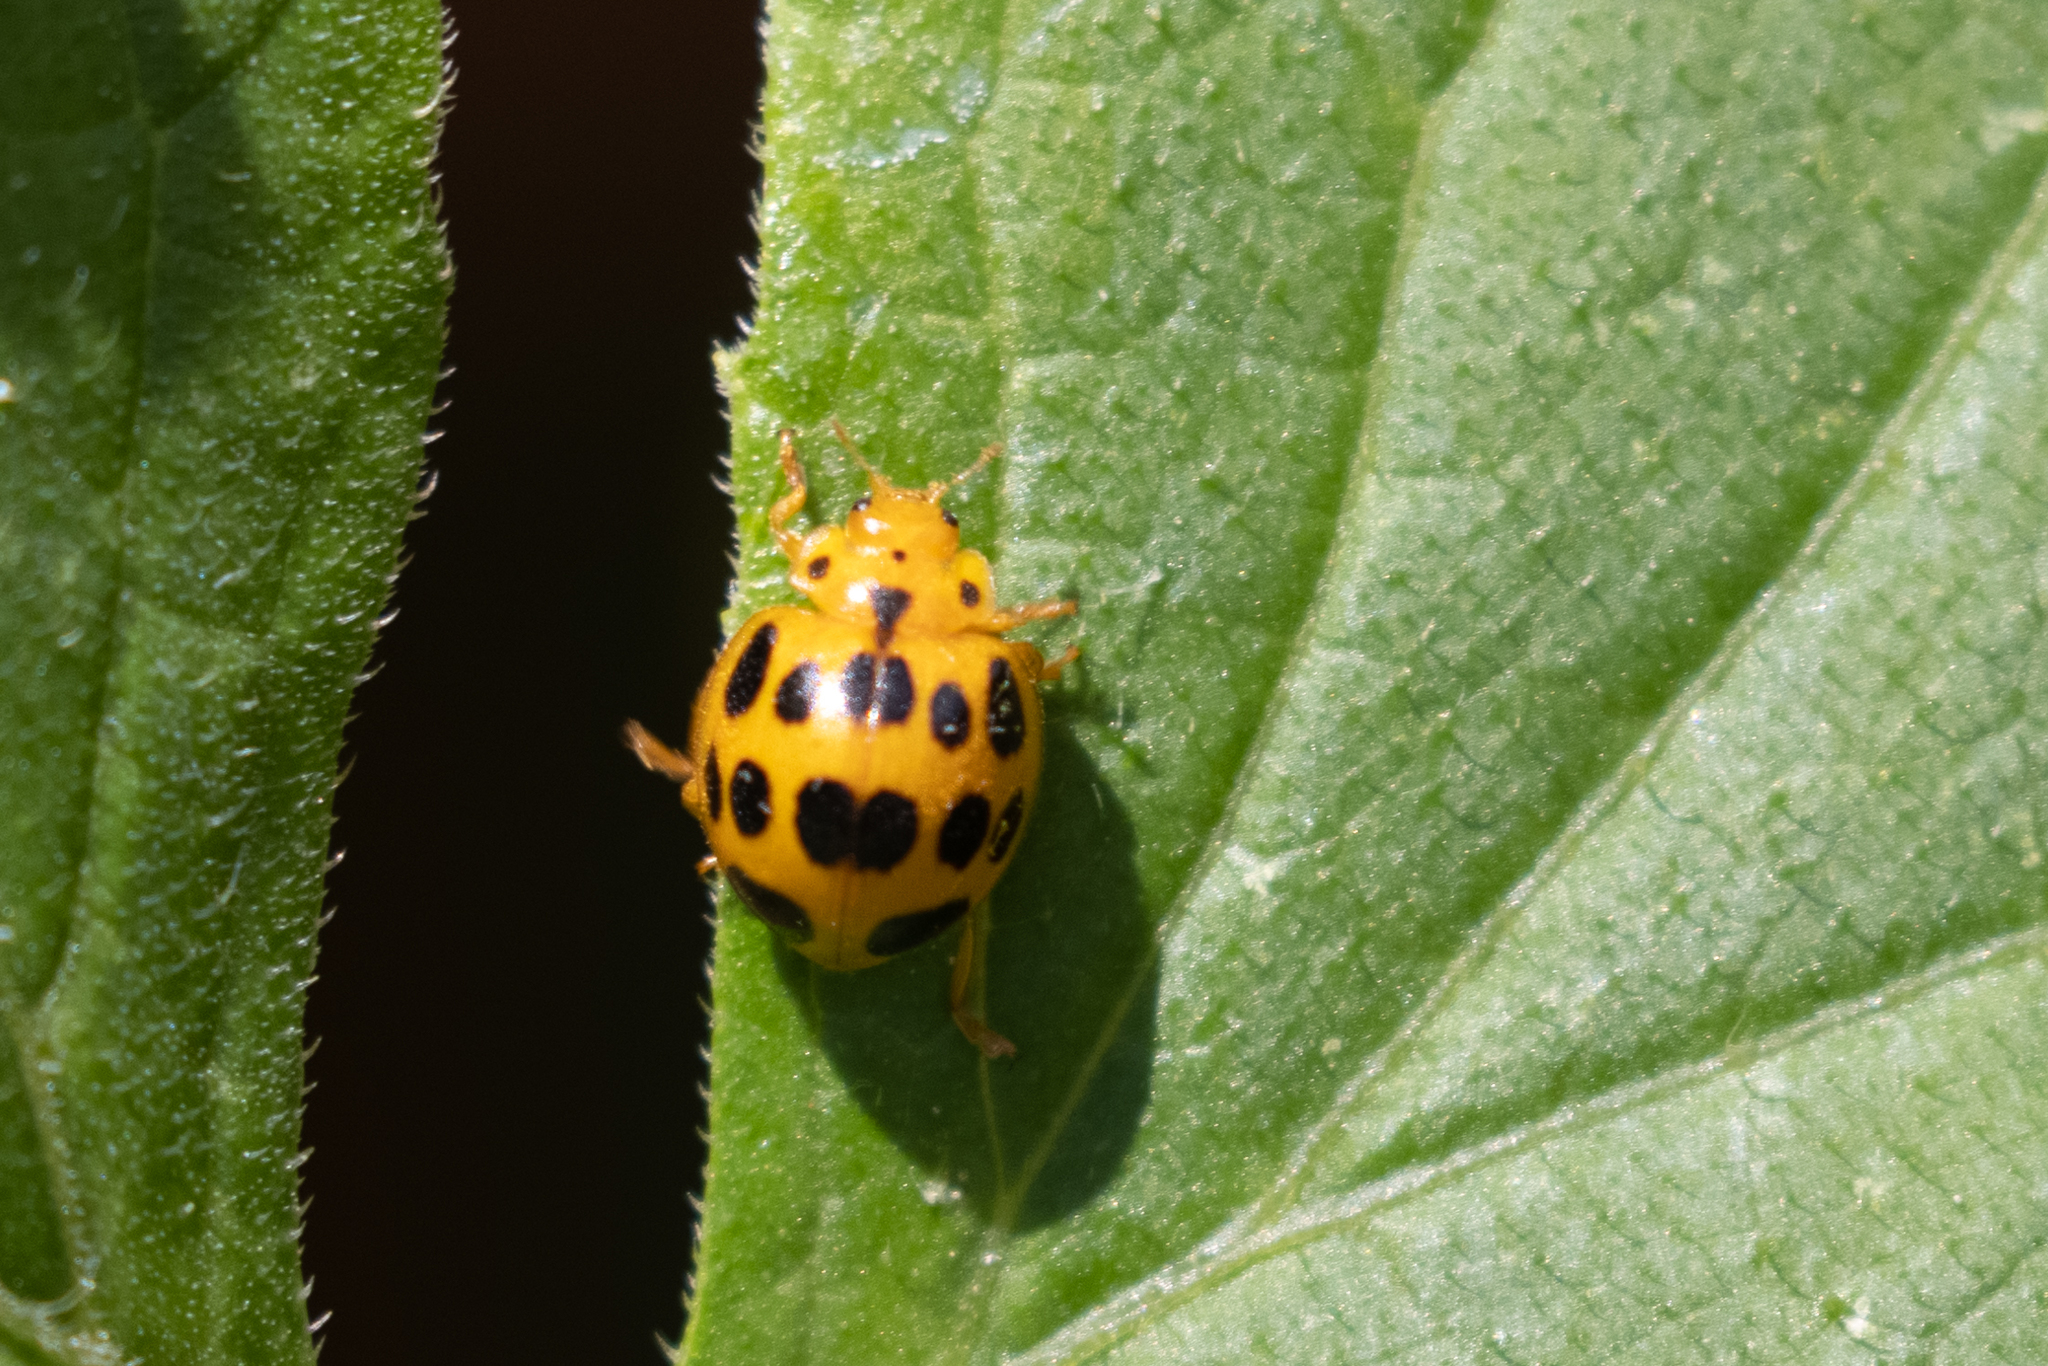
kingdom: Animalia
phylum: Arthropoda
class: Insecta
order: Coleoptera
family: Coccinellidae
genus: Epilachna
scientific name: Epilachna borealis
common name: Squash beetle
